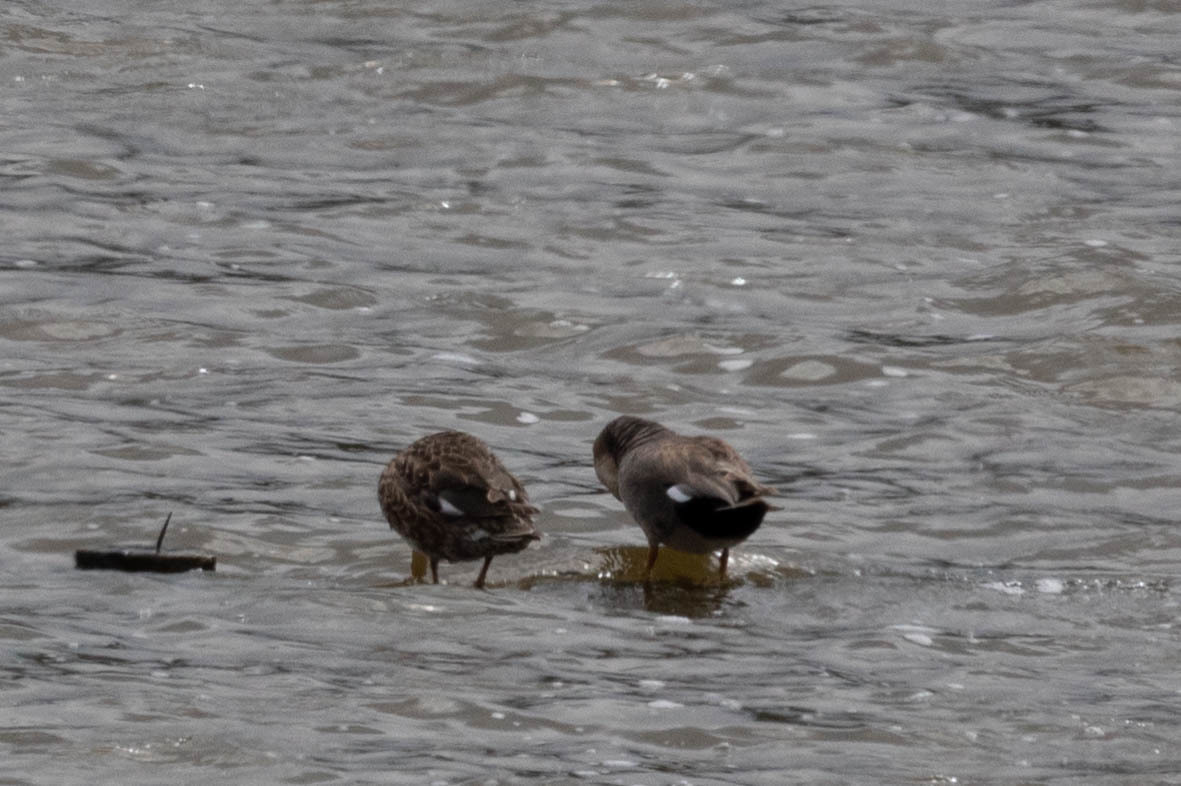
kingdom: Animalia
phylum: Chordata
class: Aves
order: Anseriformes
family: Anatidae
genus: Mareca
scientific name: Mareca strepera
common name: Gadwall
